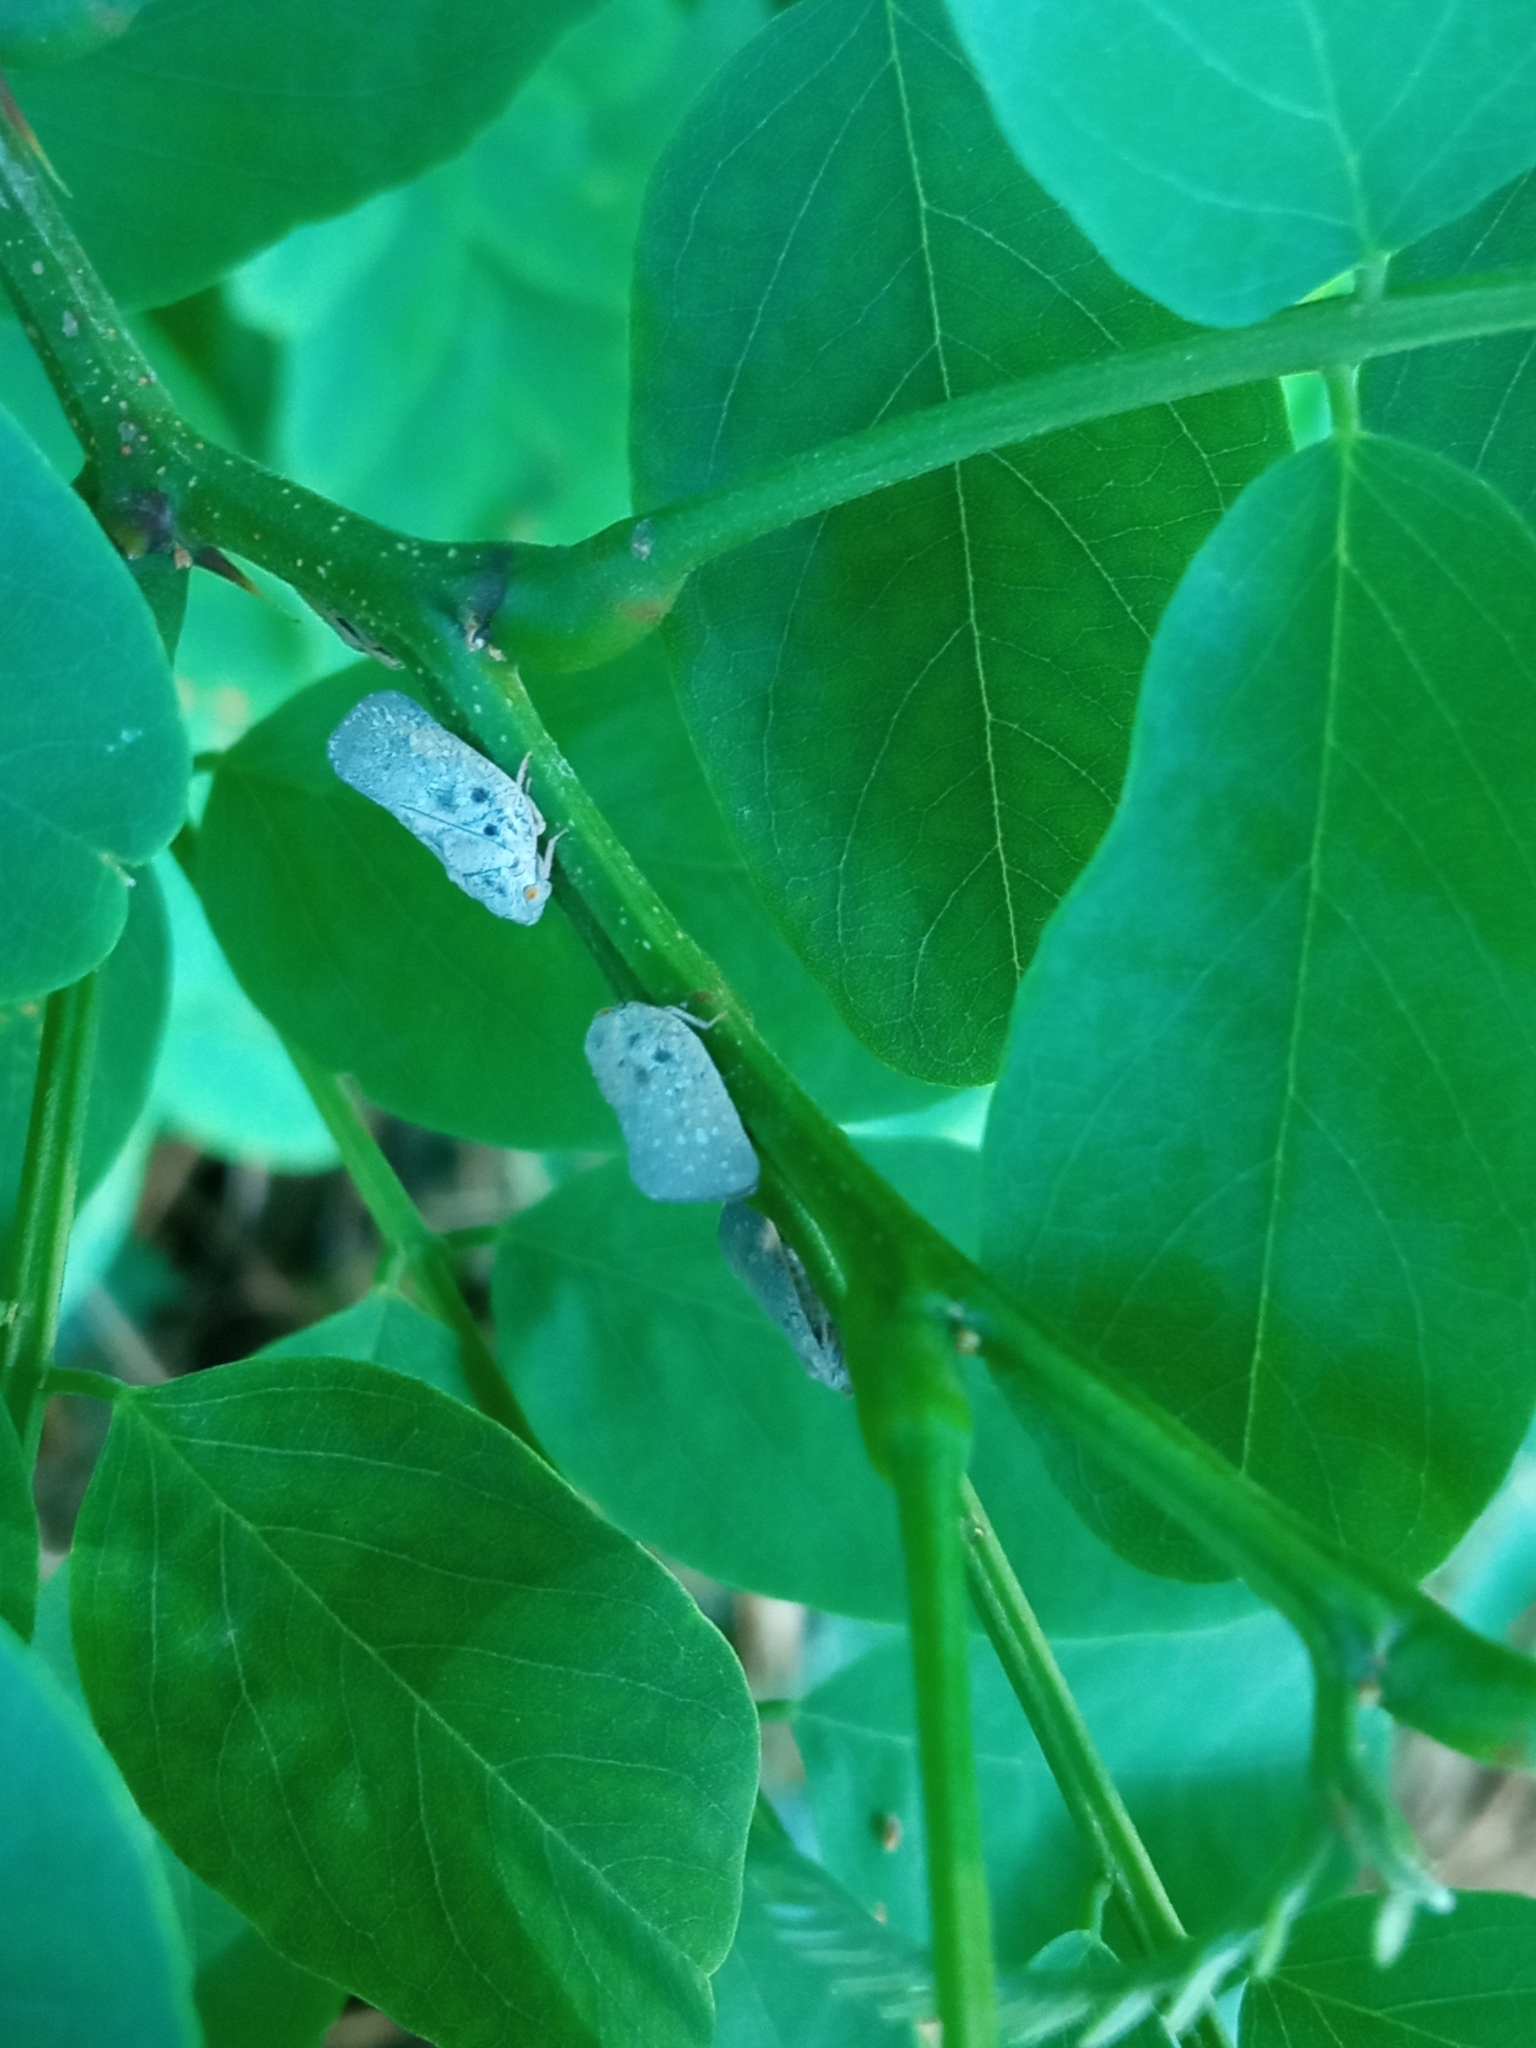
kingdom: Animalia
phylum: Arthropoda
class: Insecta
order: Hemiptera
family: Flatidae
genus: Metcalfa
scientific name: Metcalfa pruinosa
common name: Citrus flatid planthopper
